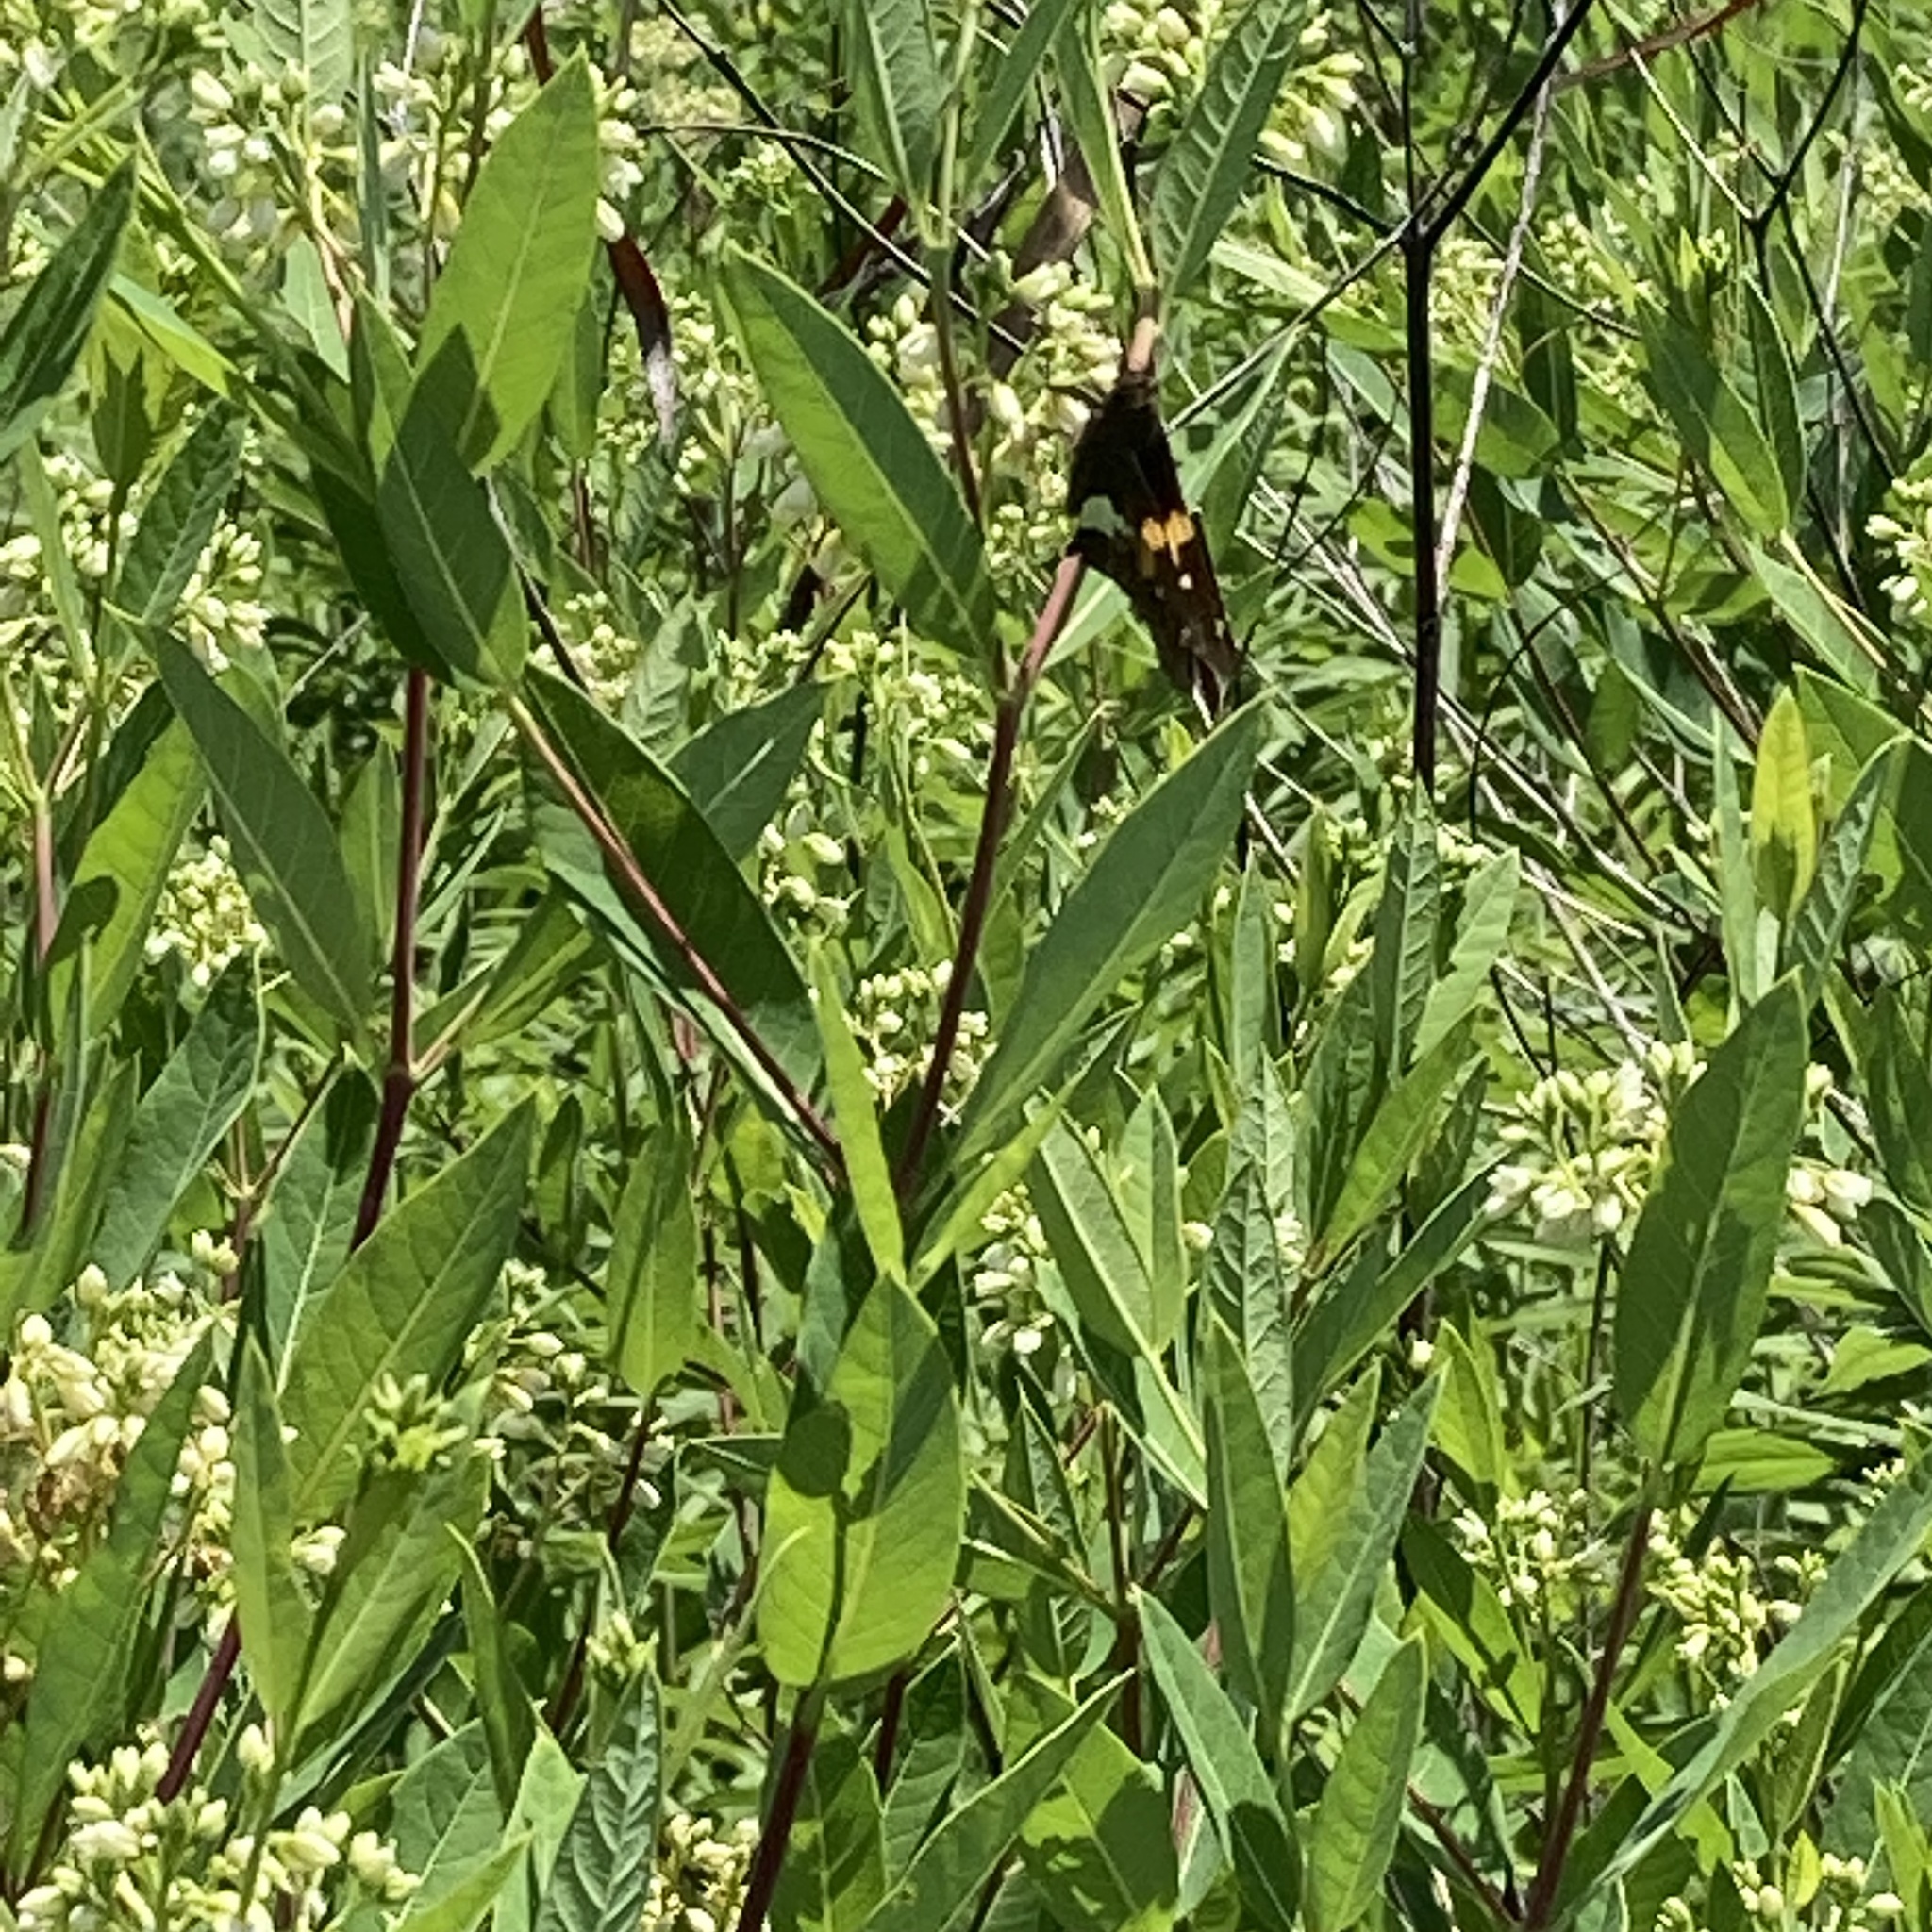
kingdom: Animalia
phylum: Arthropoda
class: Insecta
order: Lepidoptera
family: Hesperiidae
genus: Epargyreus
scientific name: Epargyreus clarus
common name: Silver-spotted skipper
